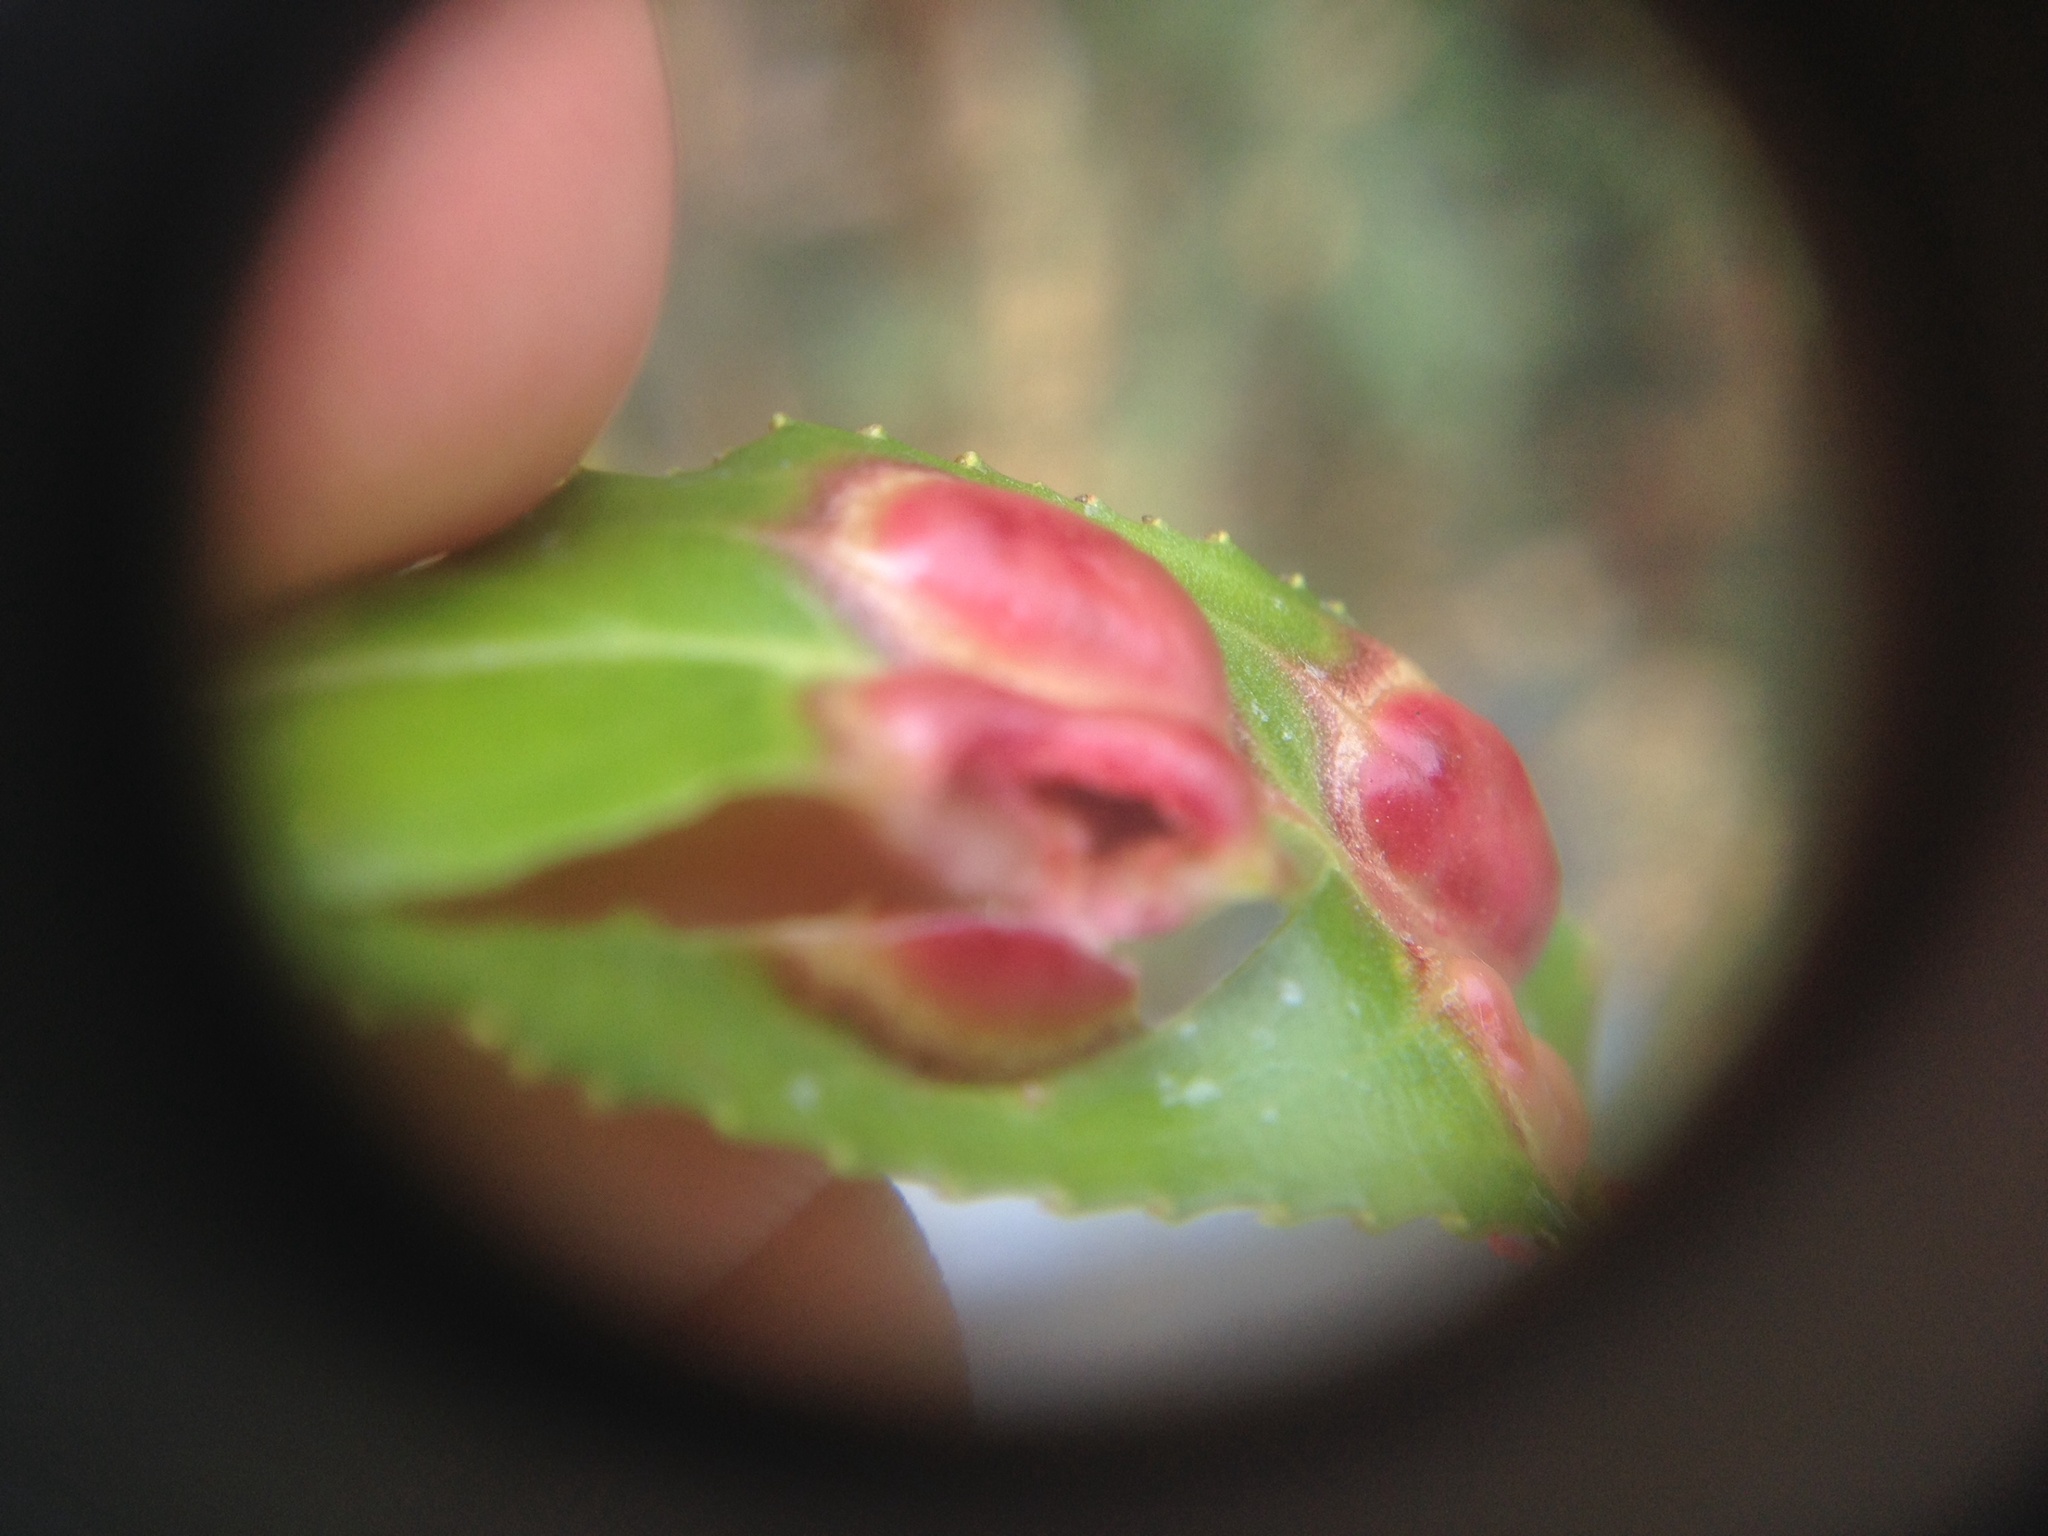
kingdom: Animalia
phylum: Arthropoda
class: Insecta
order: Hymenoptera
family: Tenthredinidae
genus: Pontania
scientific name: Pontania proxima
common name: Common sawfly
